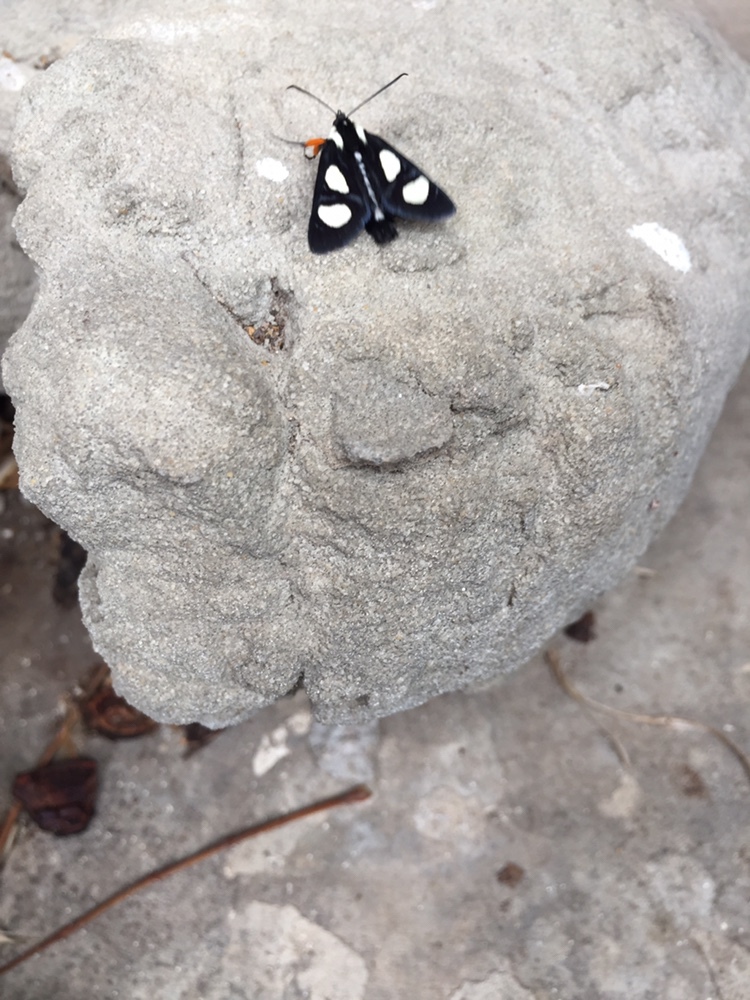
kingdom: Animalia
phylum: Arthropoda
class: Insecta
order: Lepidoptera
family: Noctuidae
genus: Alypia
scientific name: Alypia octomaculata
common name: Eight-spotted forester
